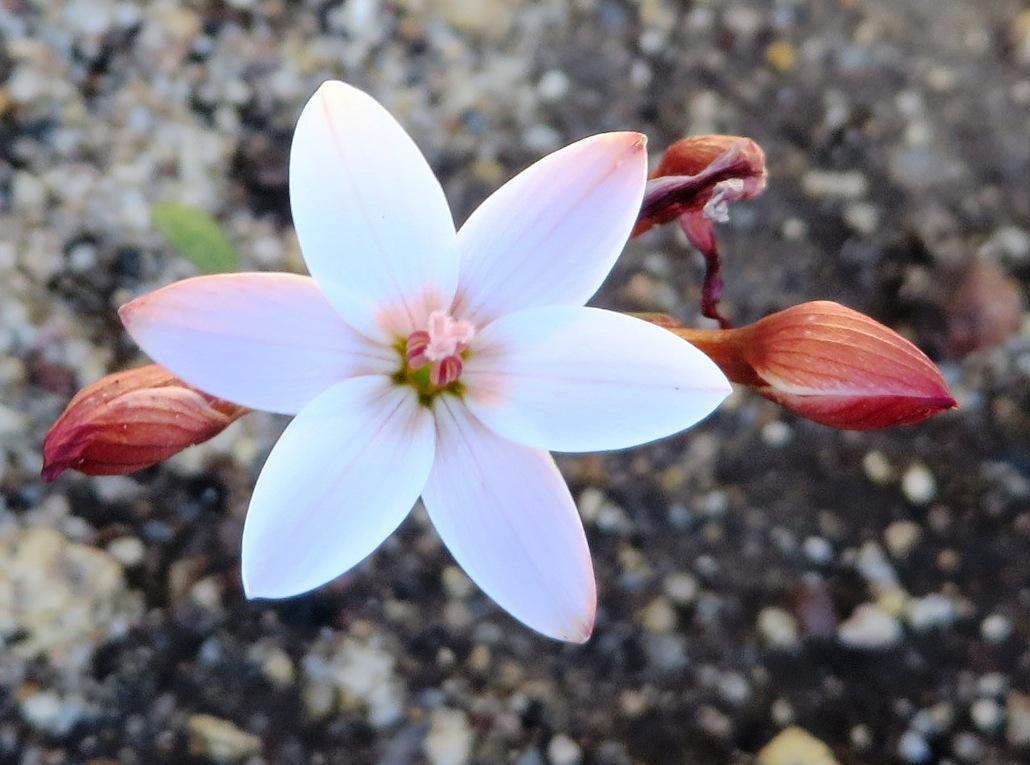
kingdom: Plantae
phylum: Tracheophyta
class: Liliopsida
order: Asparagales
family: Iridaceae
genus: Geissorhiza
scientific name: Geissorhiza ovata
